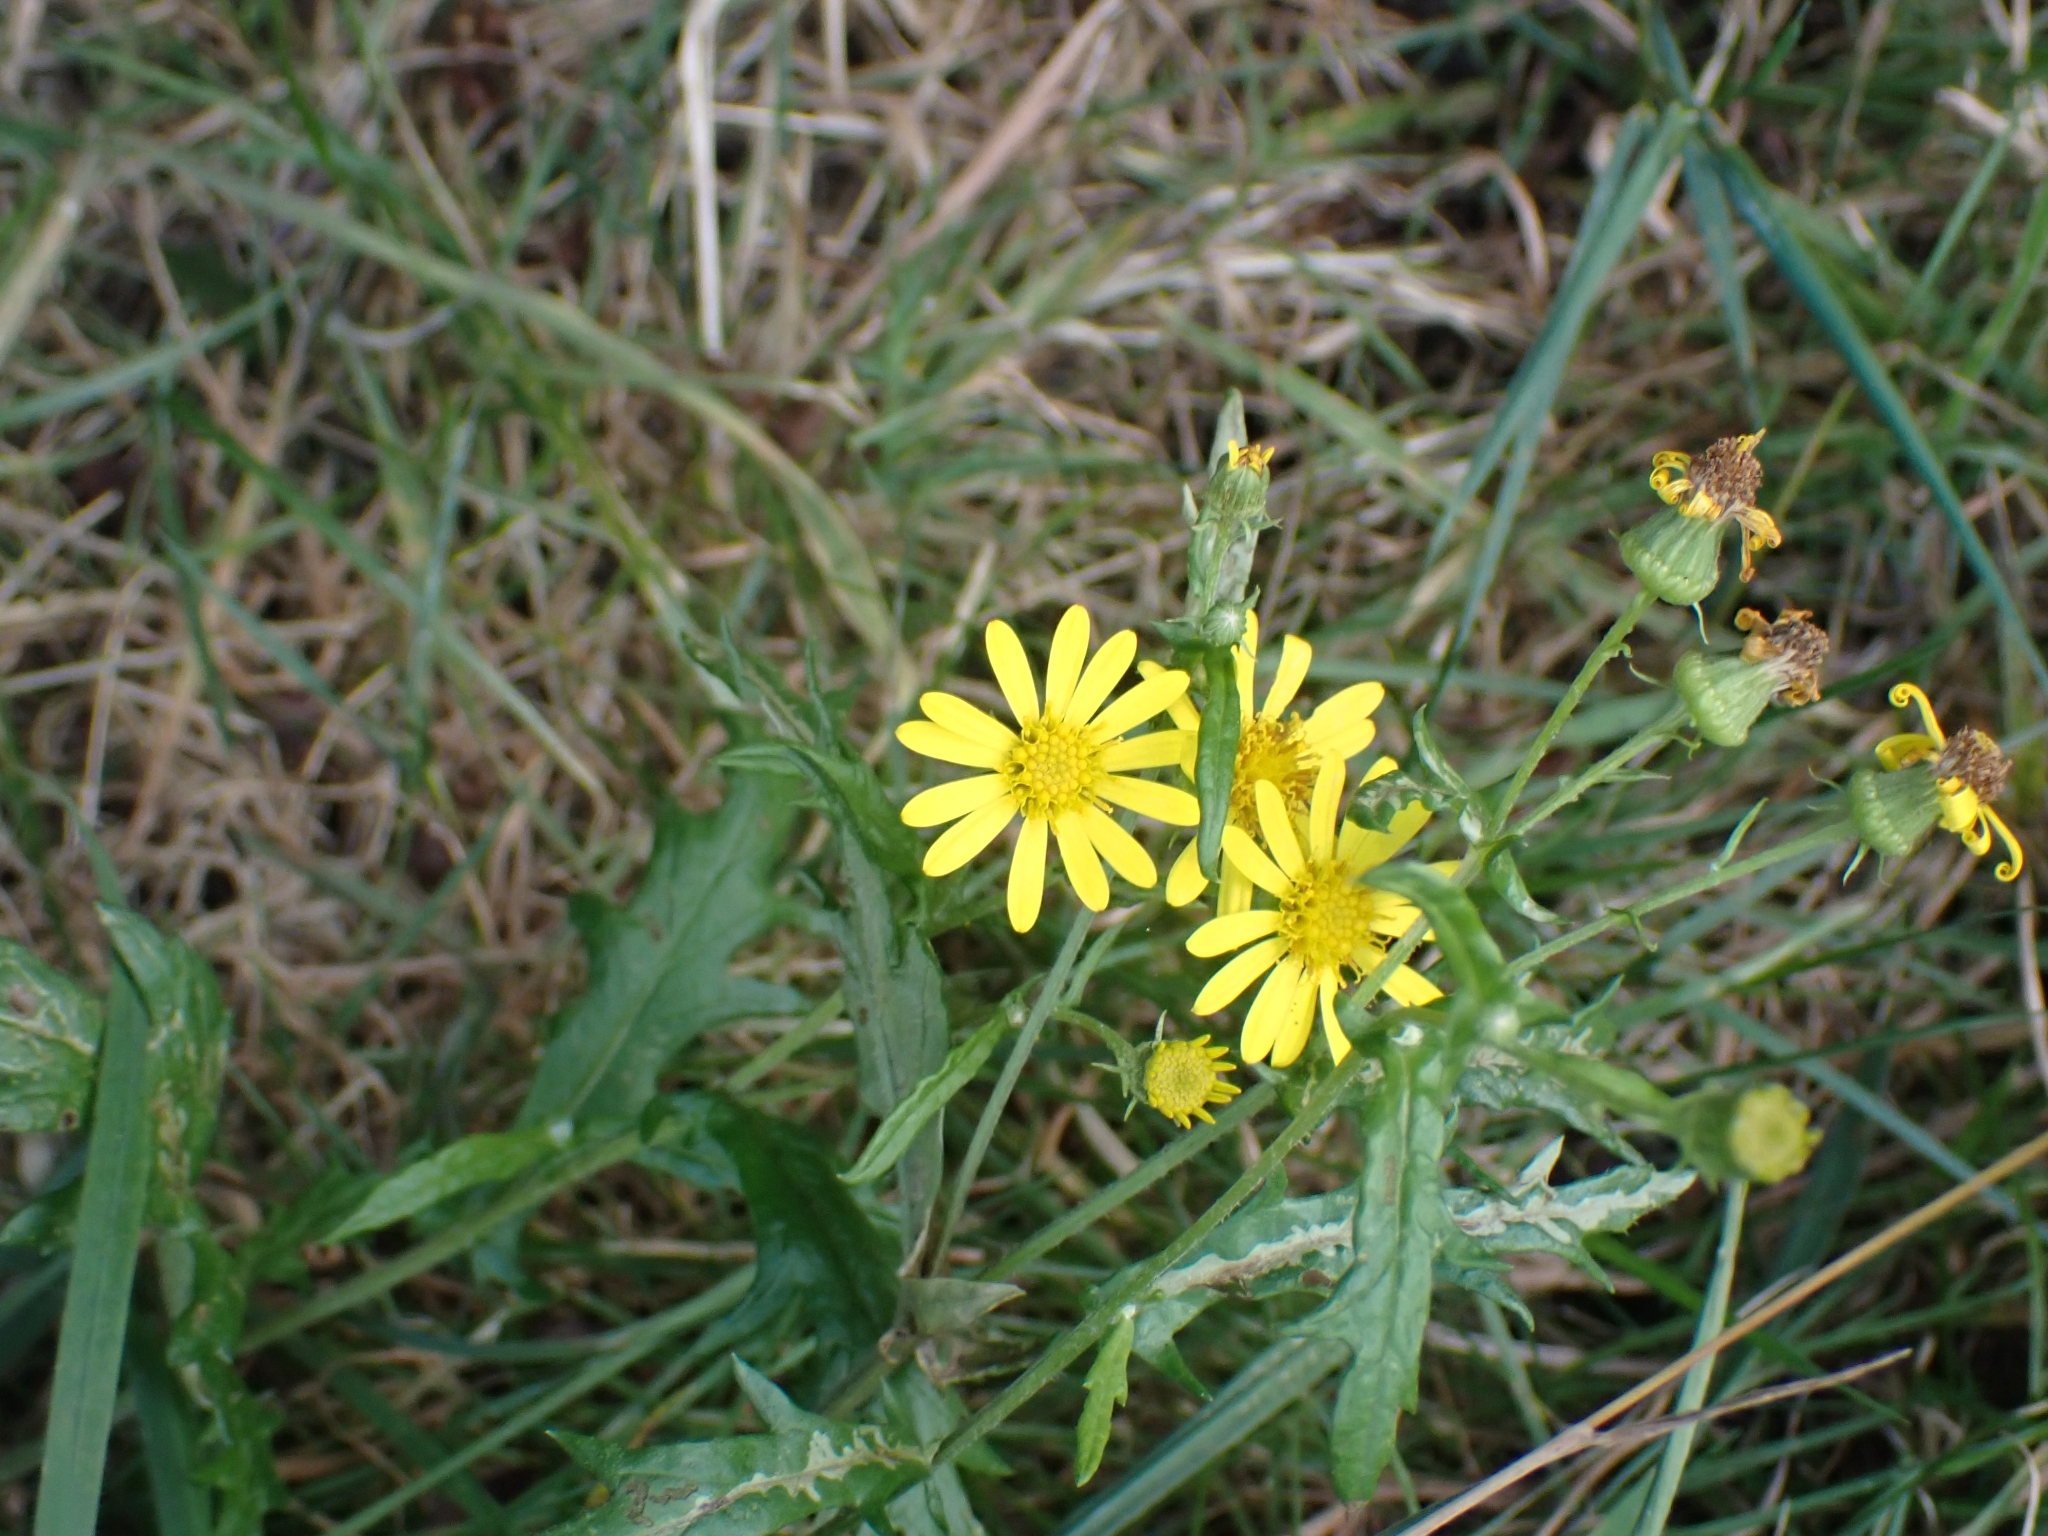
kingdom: Plantae
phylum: Tracheophyta
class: Magnoliopsida
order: Asterales
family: Asteraceae
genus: Senecio
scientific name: Senecio squalidus
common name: Oxford ragwort
